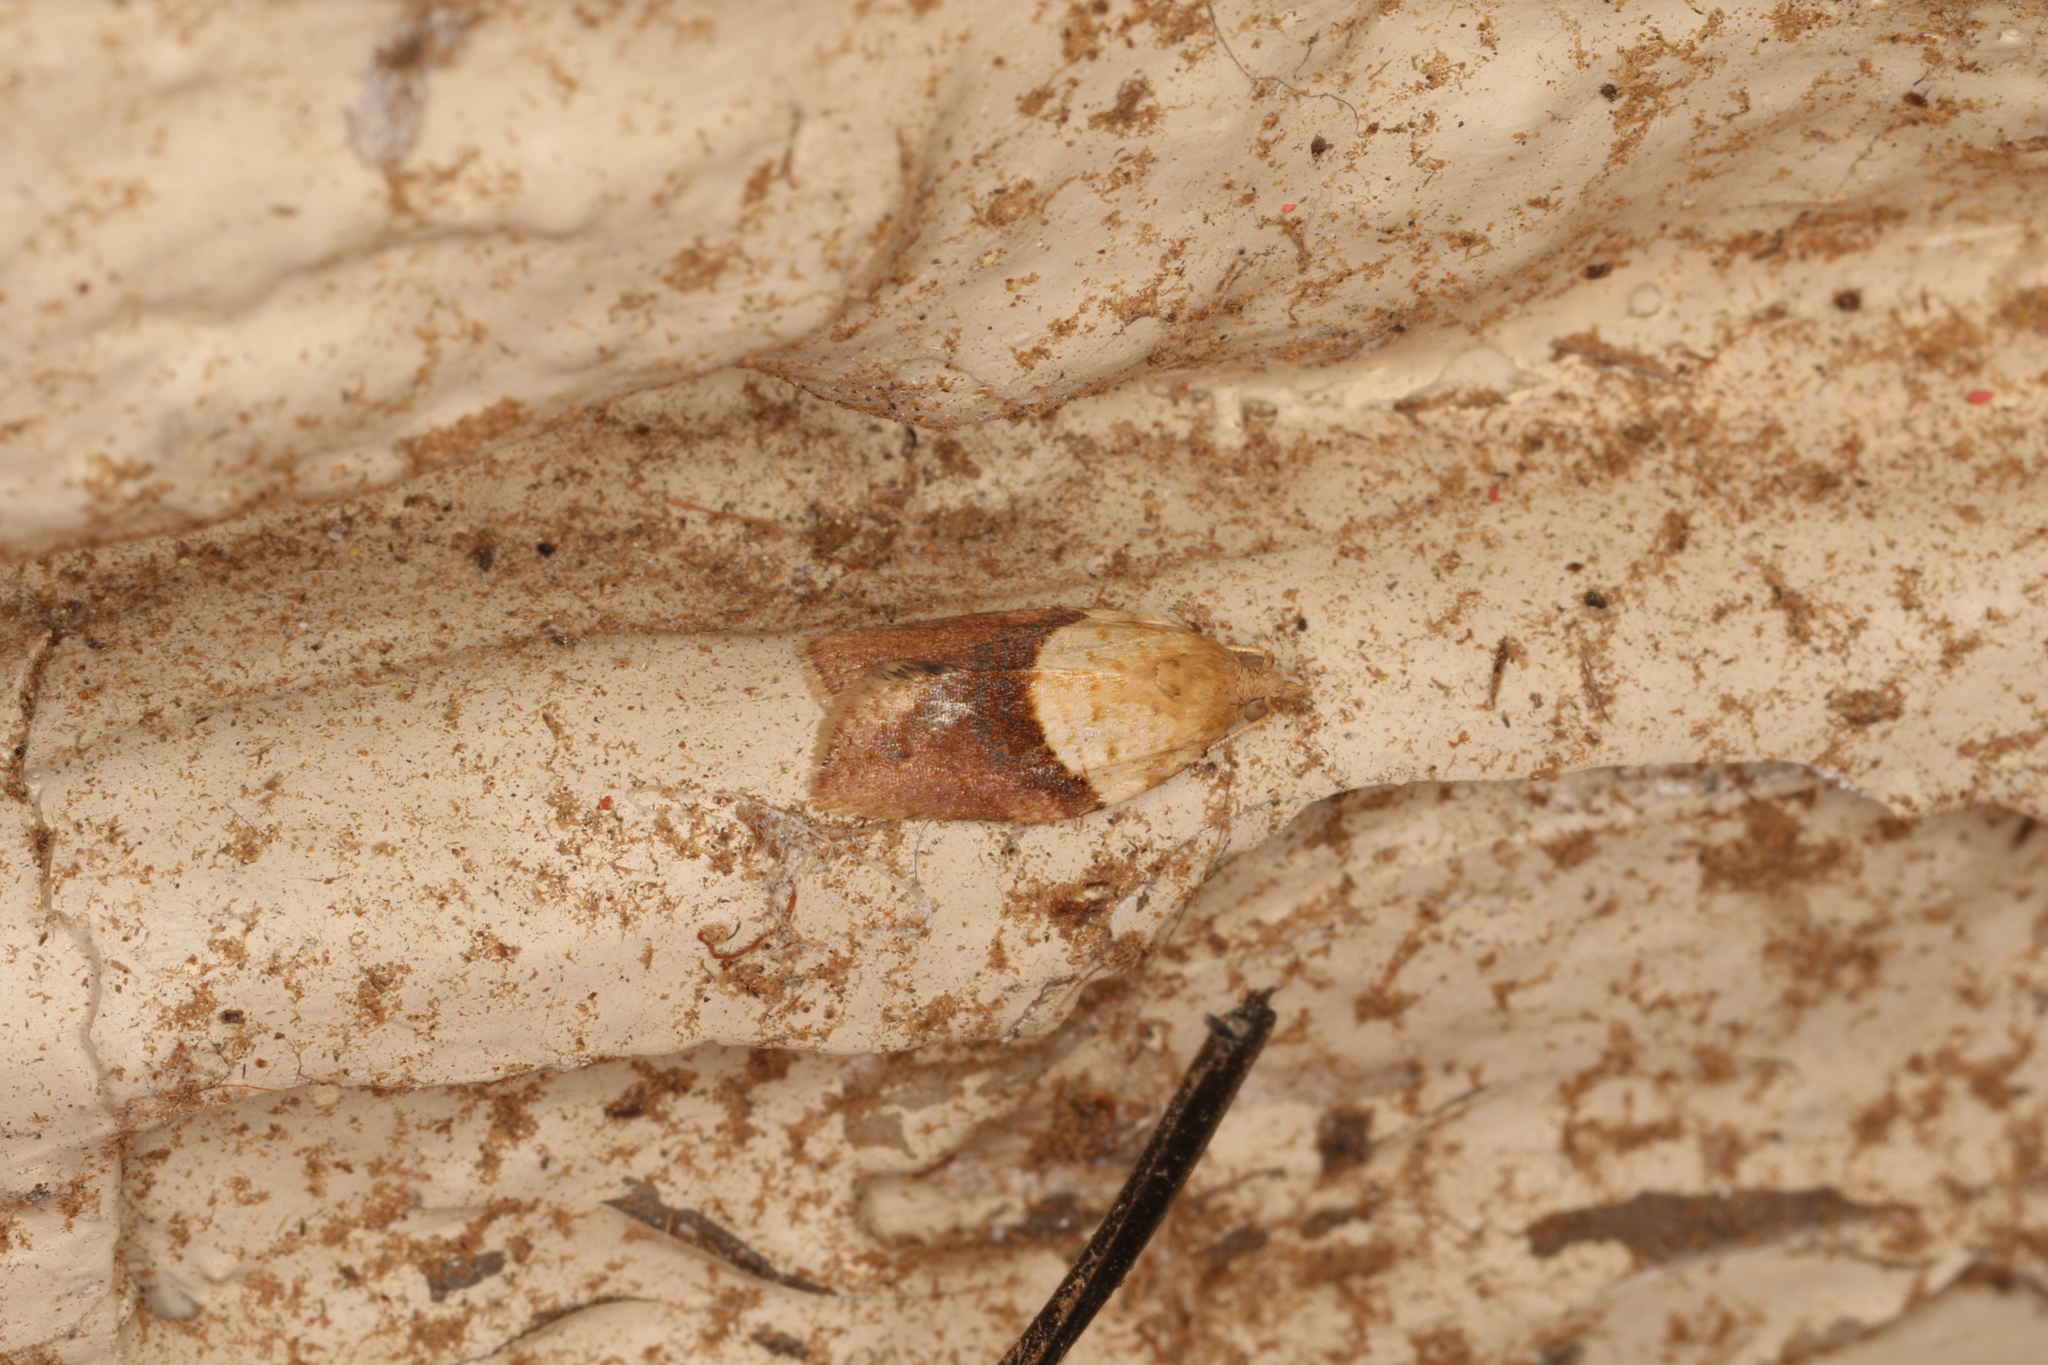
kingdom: Animalia
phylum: Arthropoda
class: Insecta
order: Lepidoptera
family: Tortricidae
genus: Epiphyas
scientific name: Epiphyas postvittana
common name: Light brown apple moth
